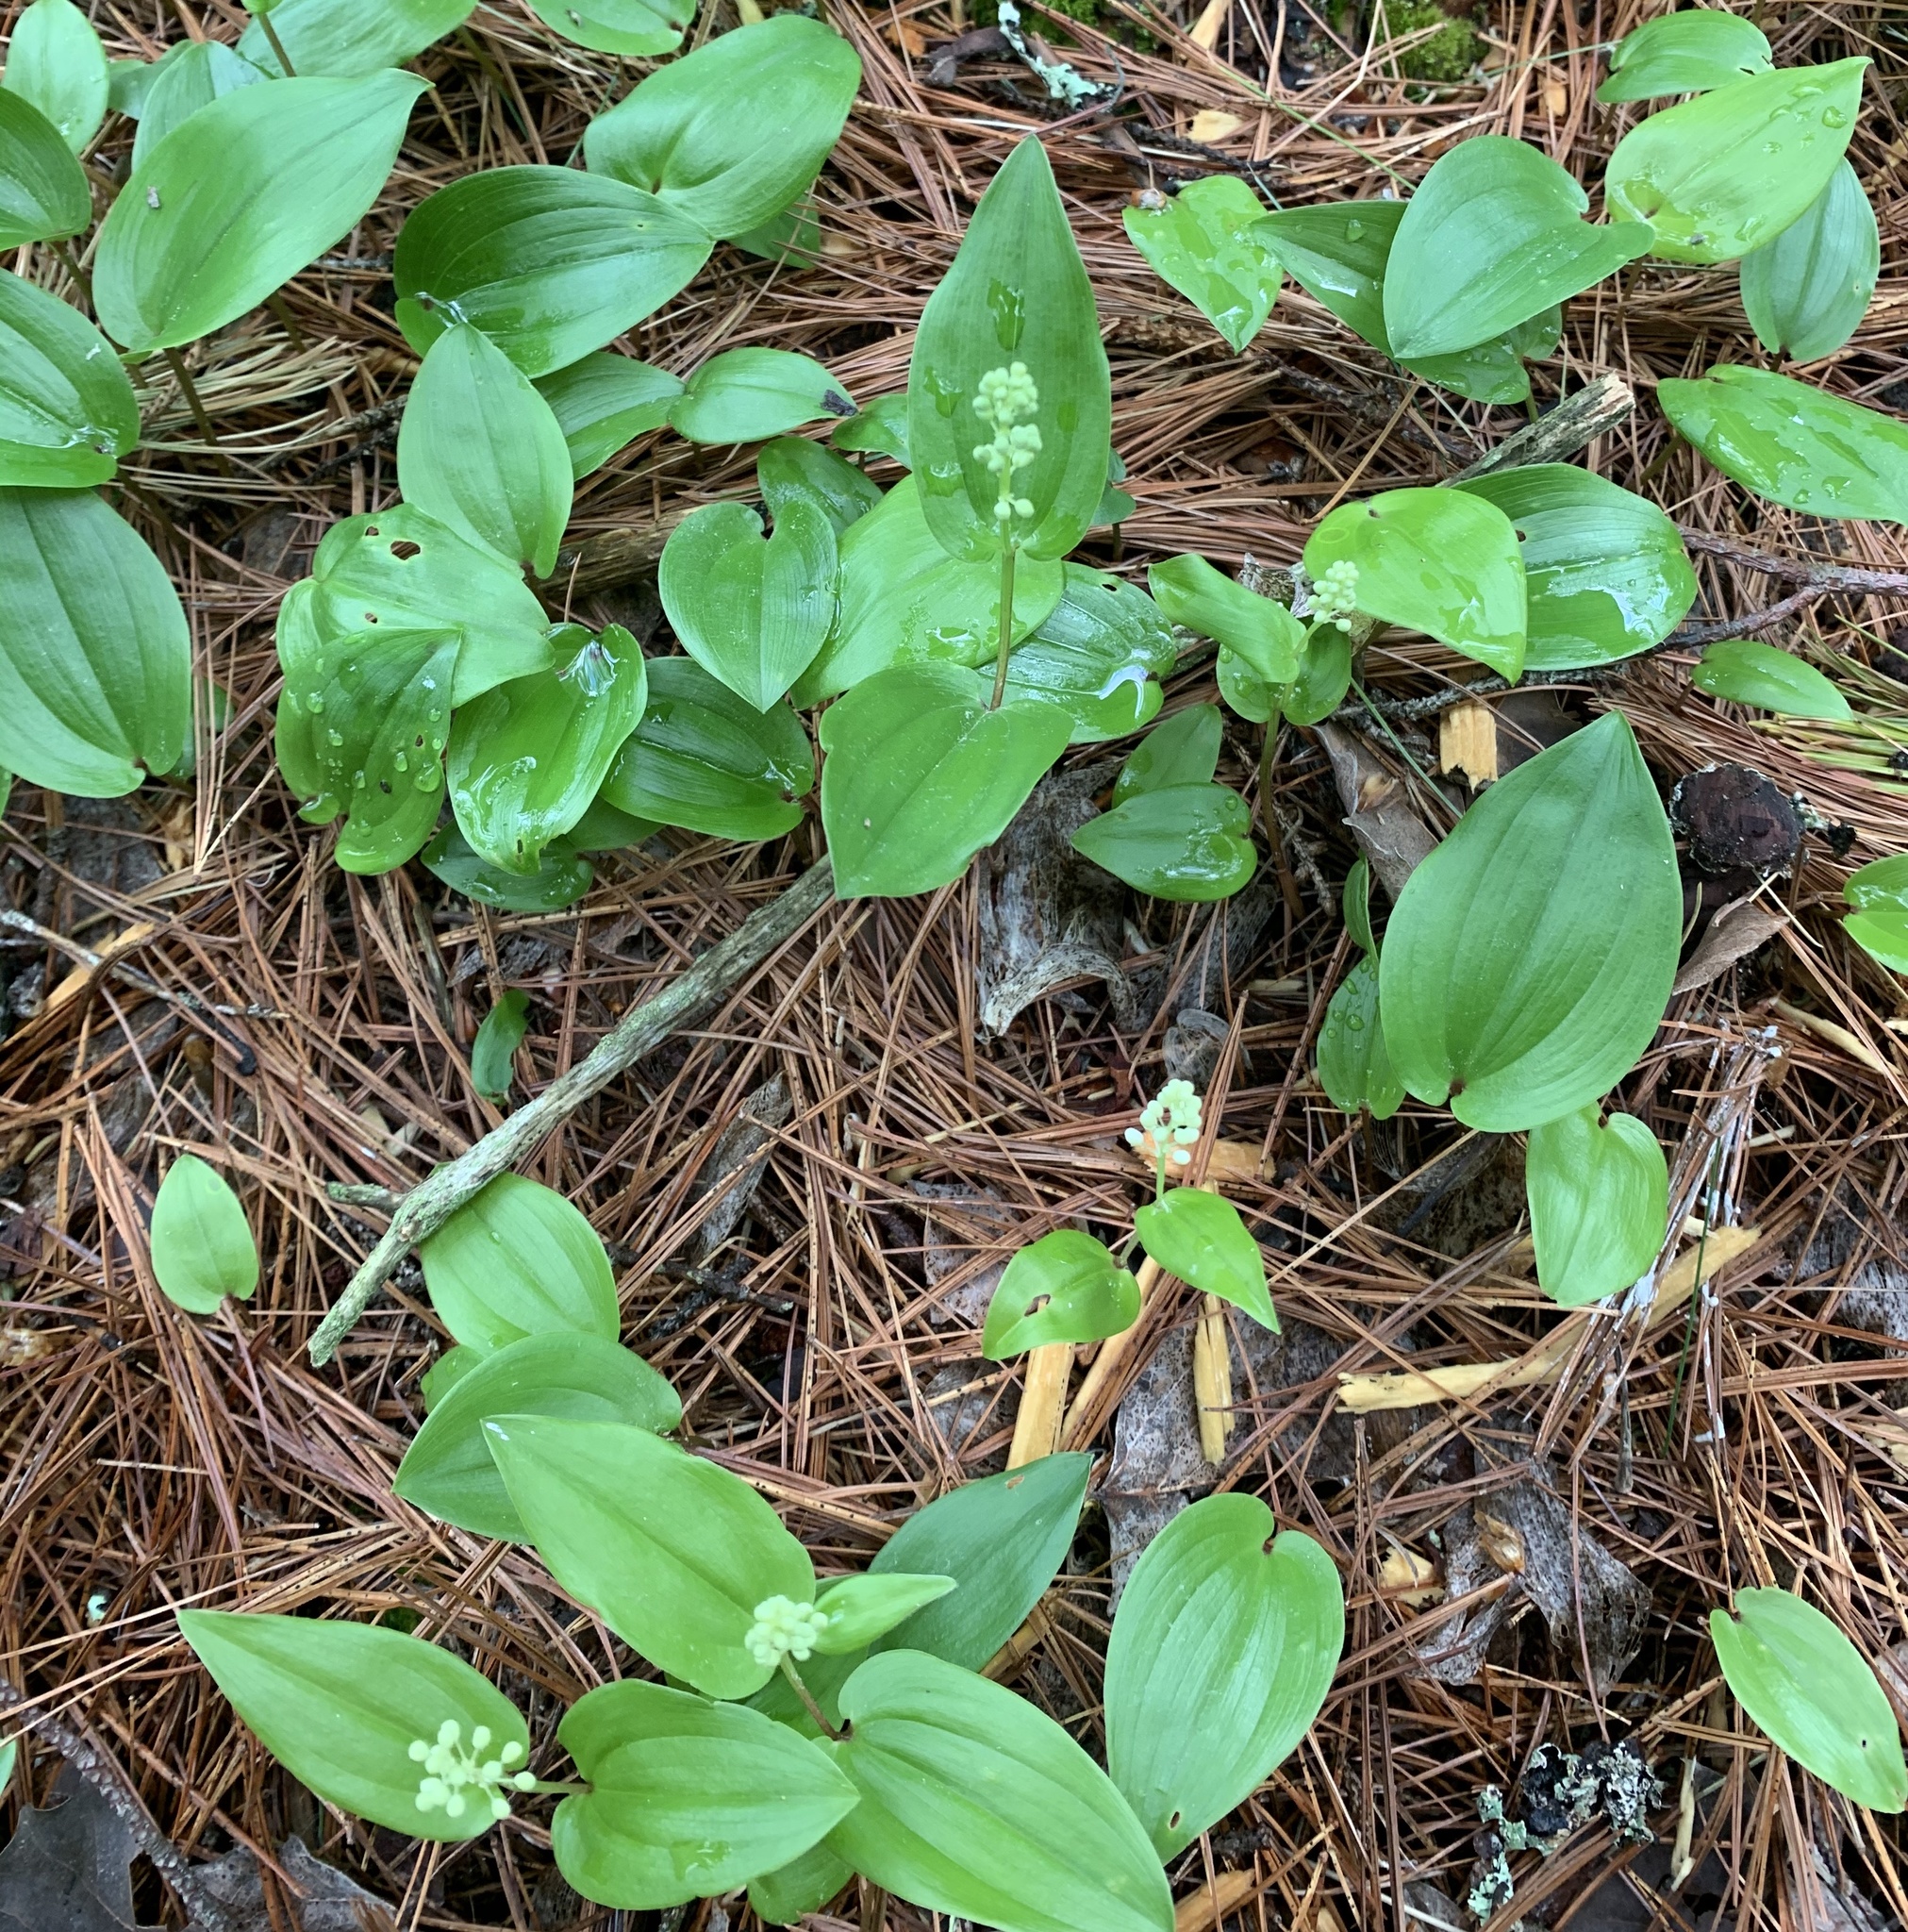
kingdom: Plantae
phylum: Tracheophyta
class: Liliopsida
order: Asparagales
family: Asparagaceae
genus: Maianthemum
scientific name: Maianthemum canadense
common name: False lily-of-the-valley
